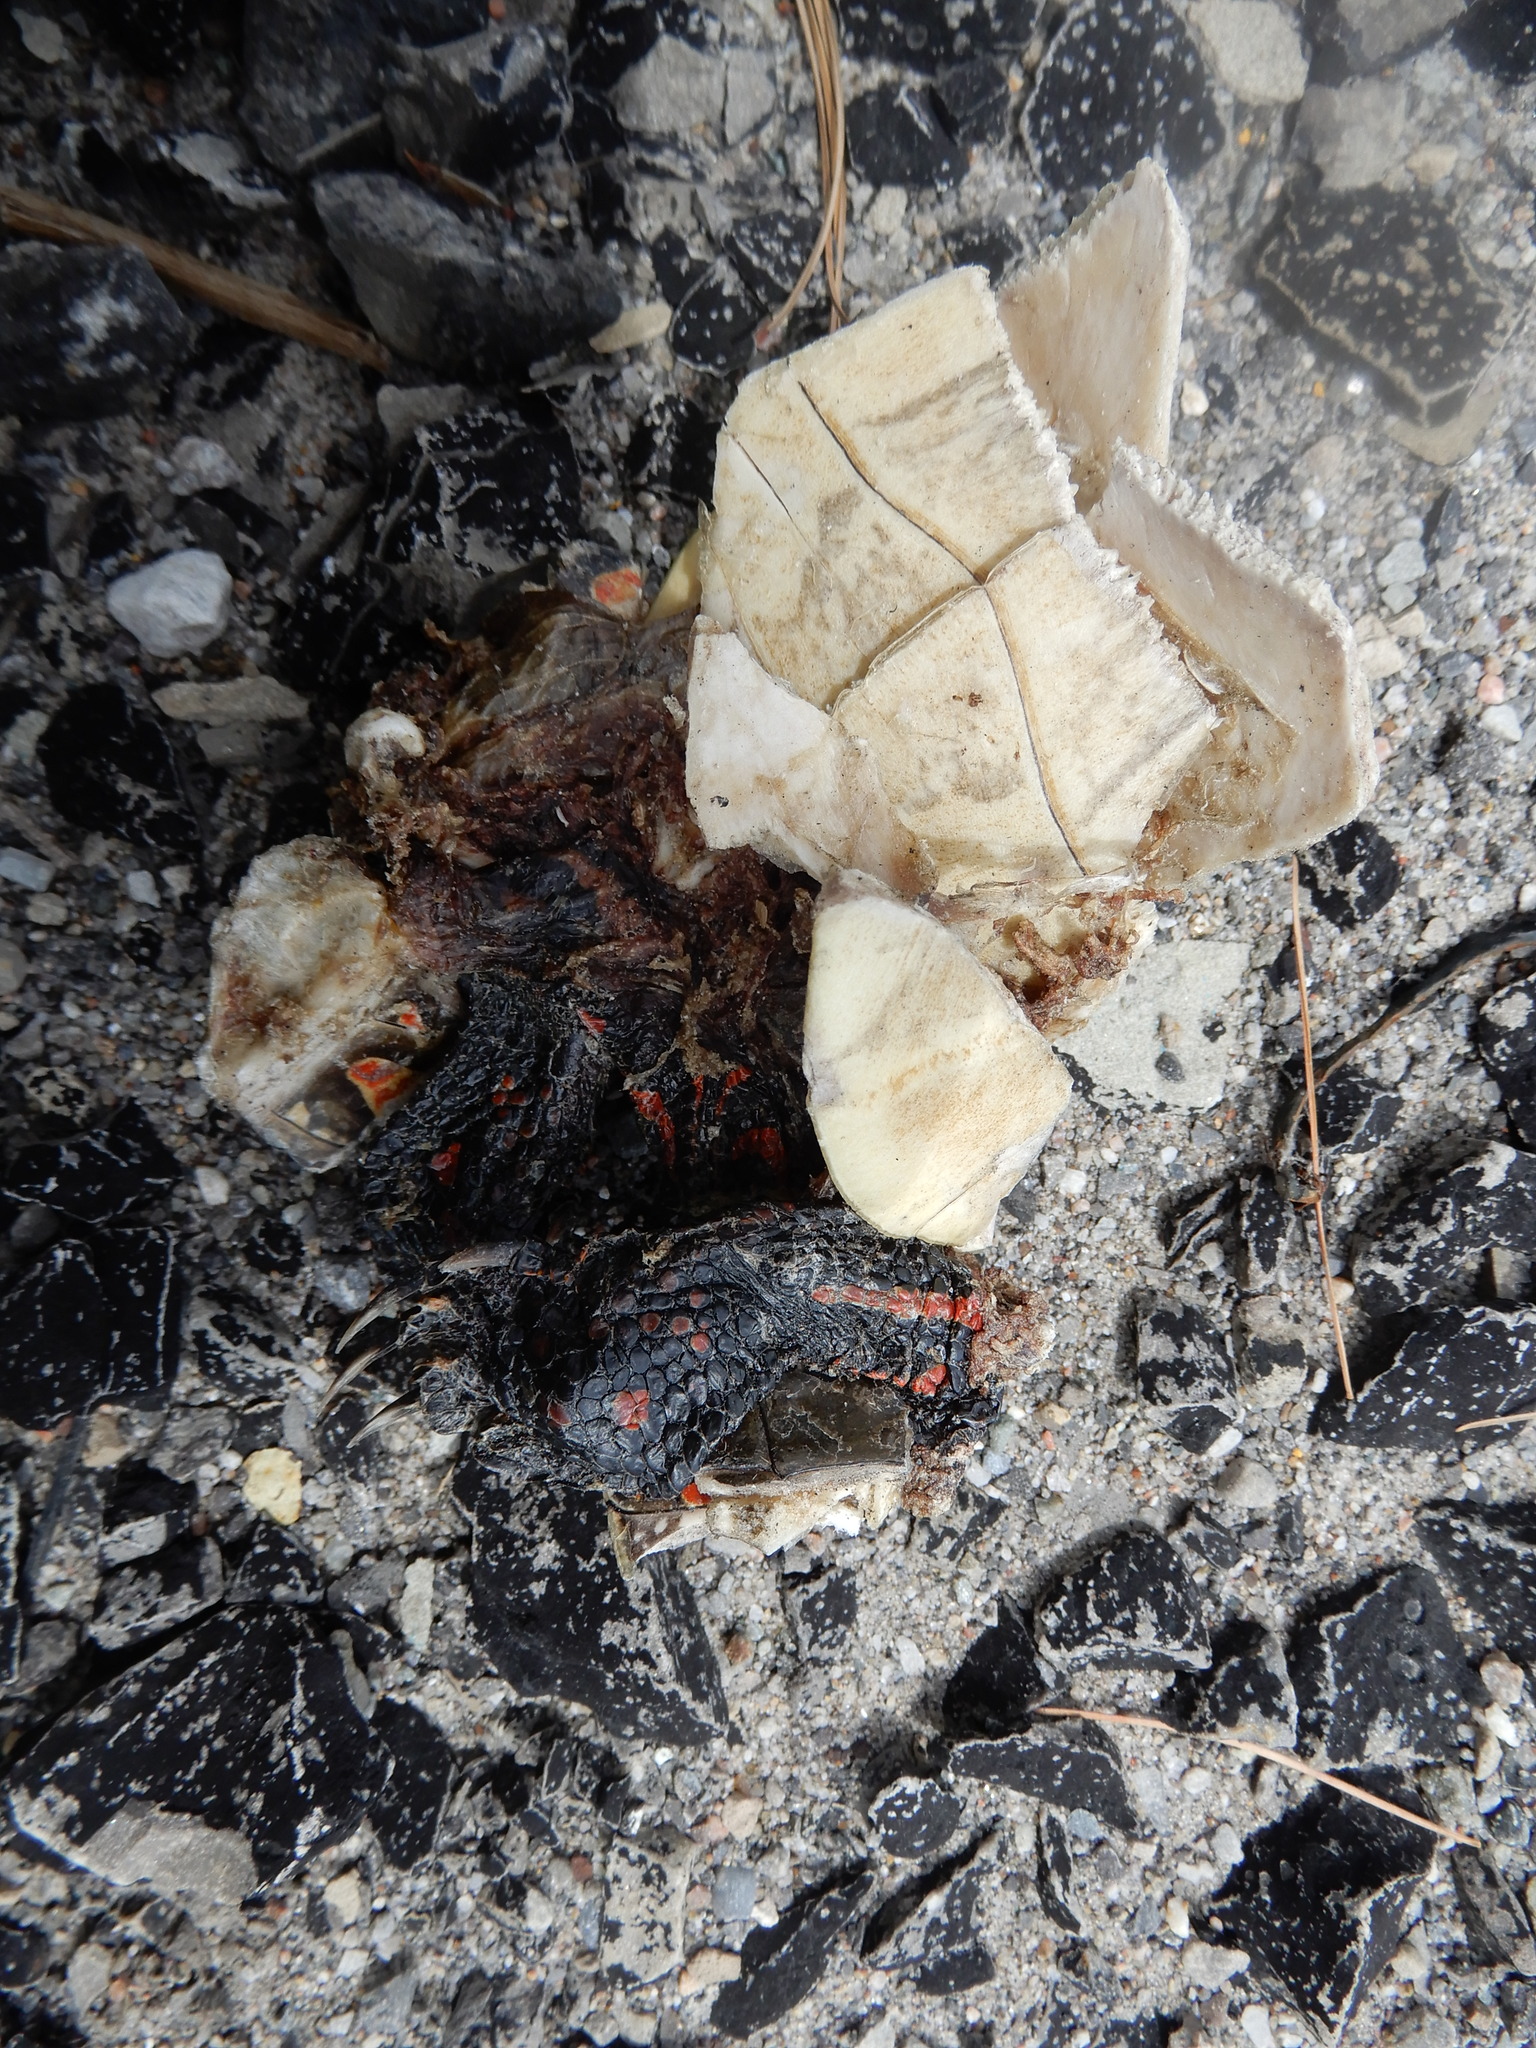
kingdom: Animalia
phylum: Chordata
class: Testudines
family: Emydidae
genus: Chrysemys
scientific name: Chrysemys picta
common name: Painted turtle
